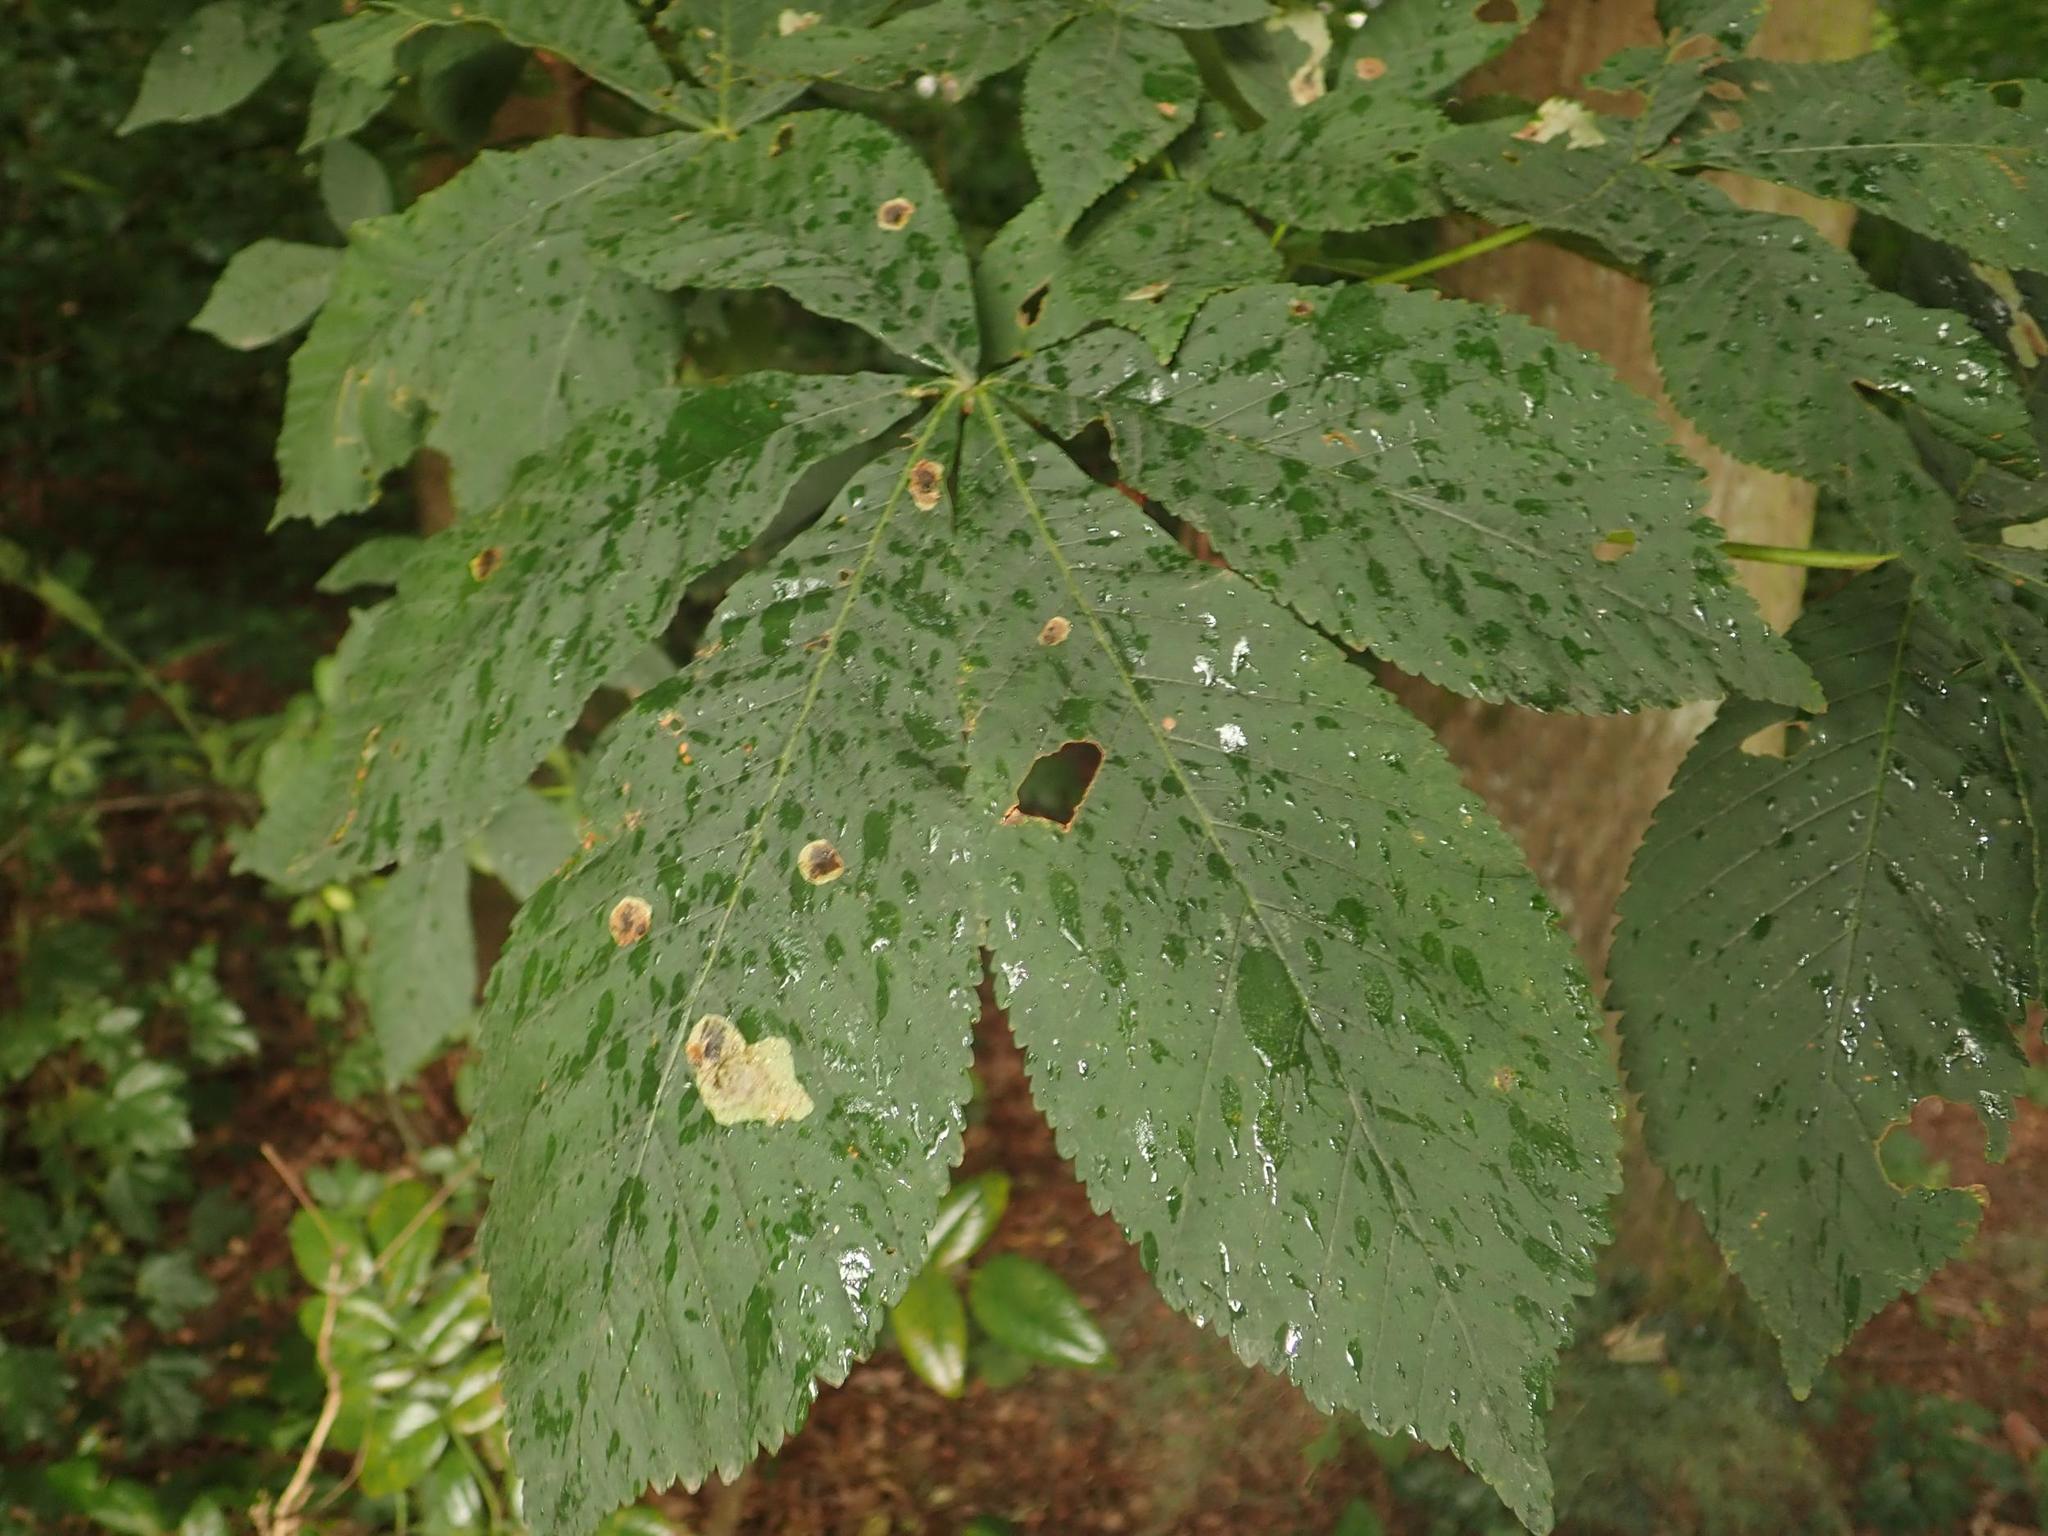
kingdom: Plantae
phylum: Tracheophyta
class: Magnoliopsida
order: Sapindales
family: Sapindaceae
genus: Aesculus
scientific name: Aesculus hippocastanum
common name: Horse-chestnut
